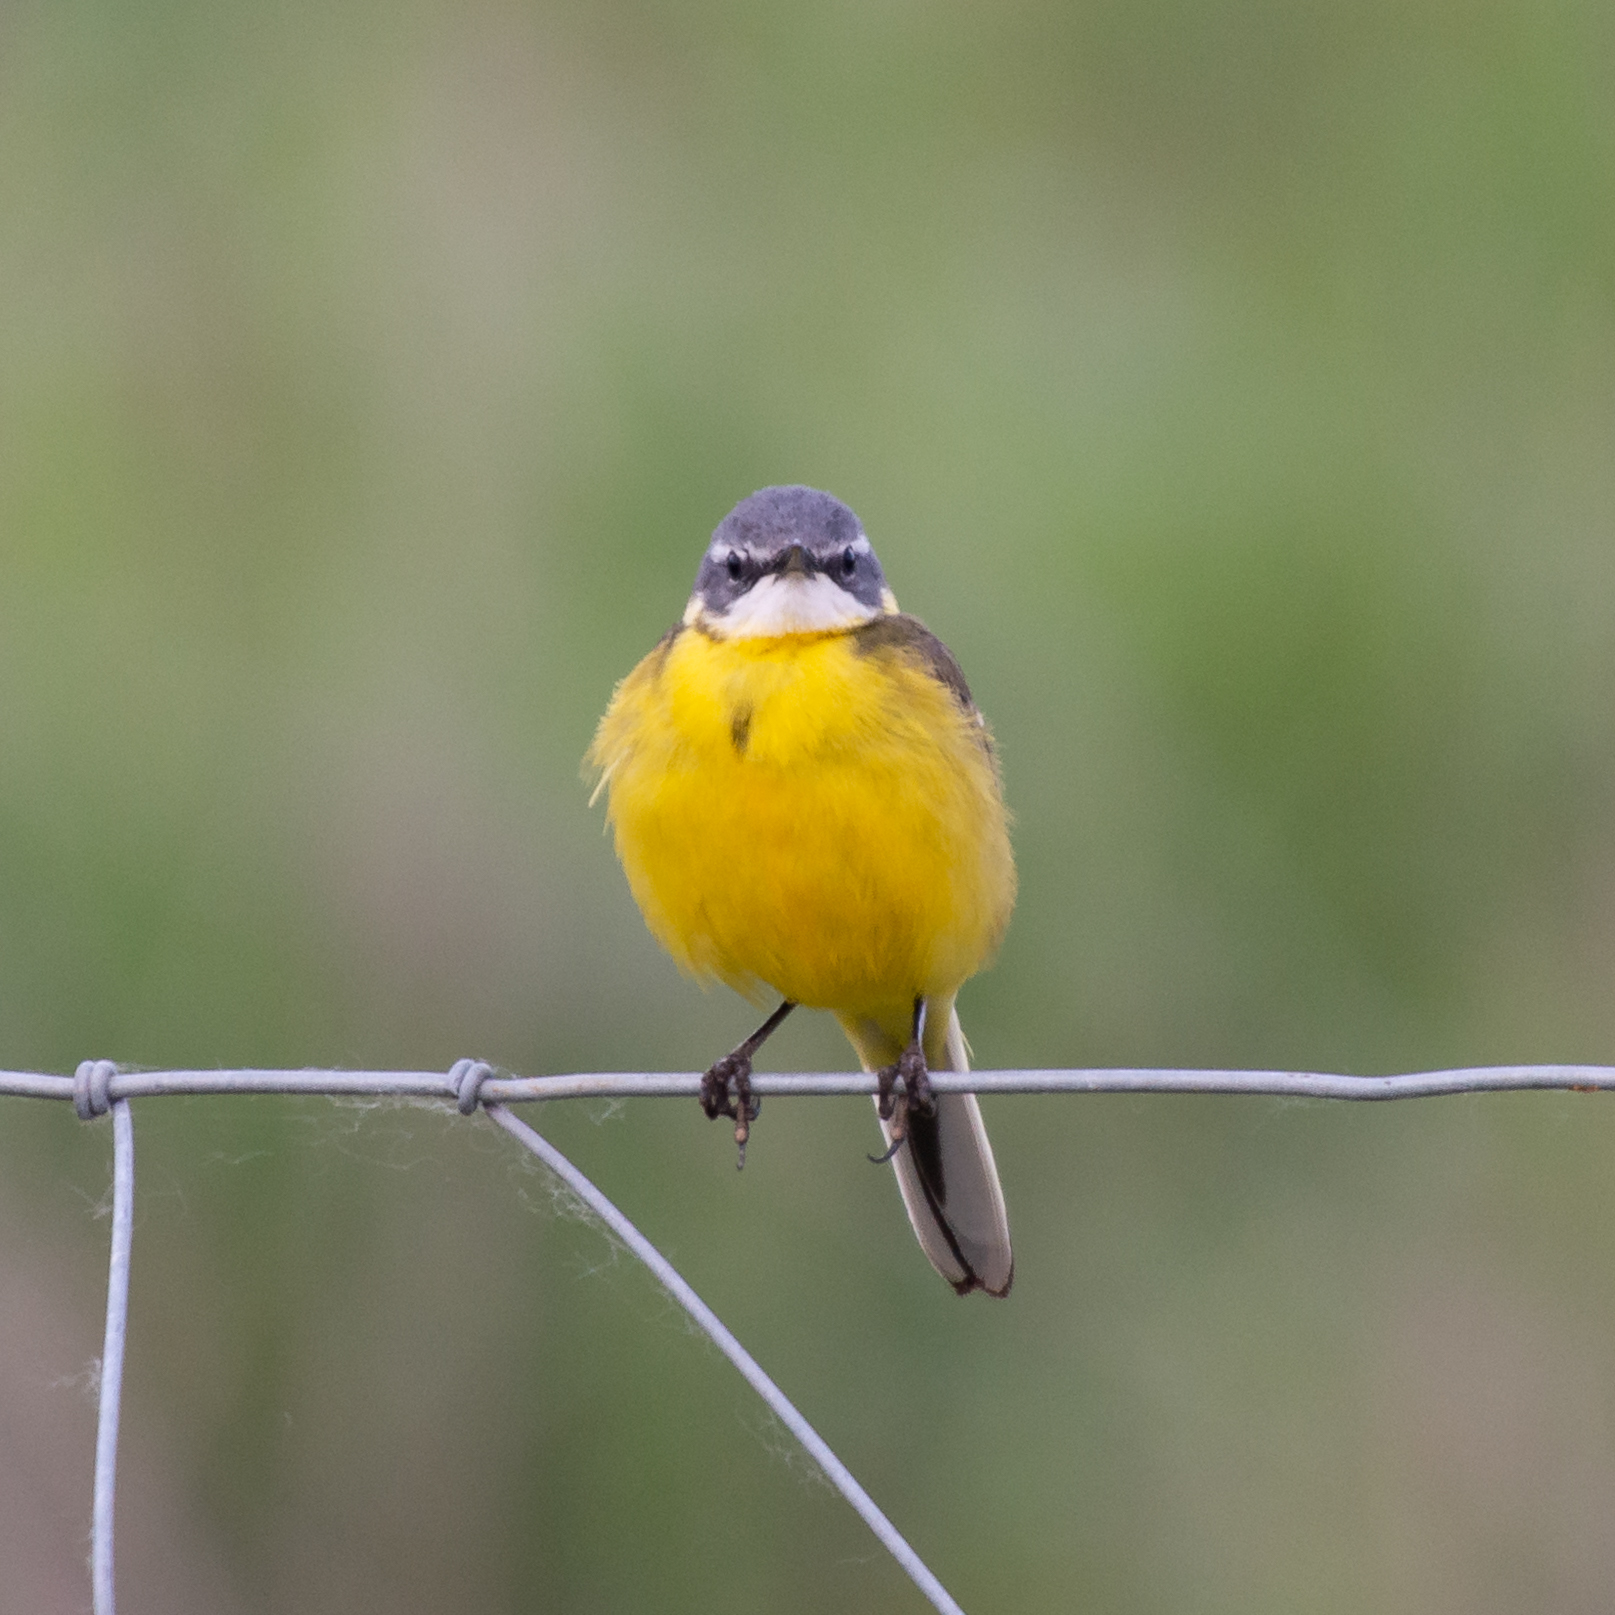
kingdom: Animalia
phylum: Chordata
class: Aves
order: Passeriformes
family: Motacillidae
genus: Motacilla
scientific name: Motacilla flava
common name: Western yellow wagtail
